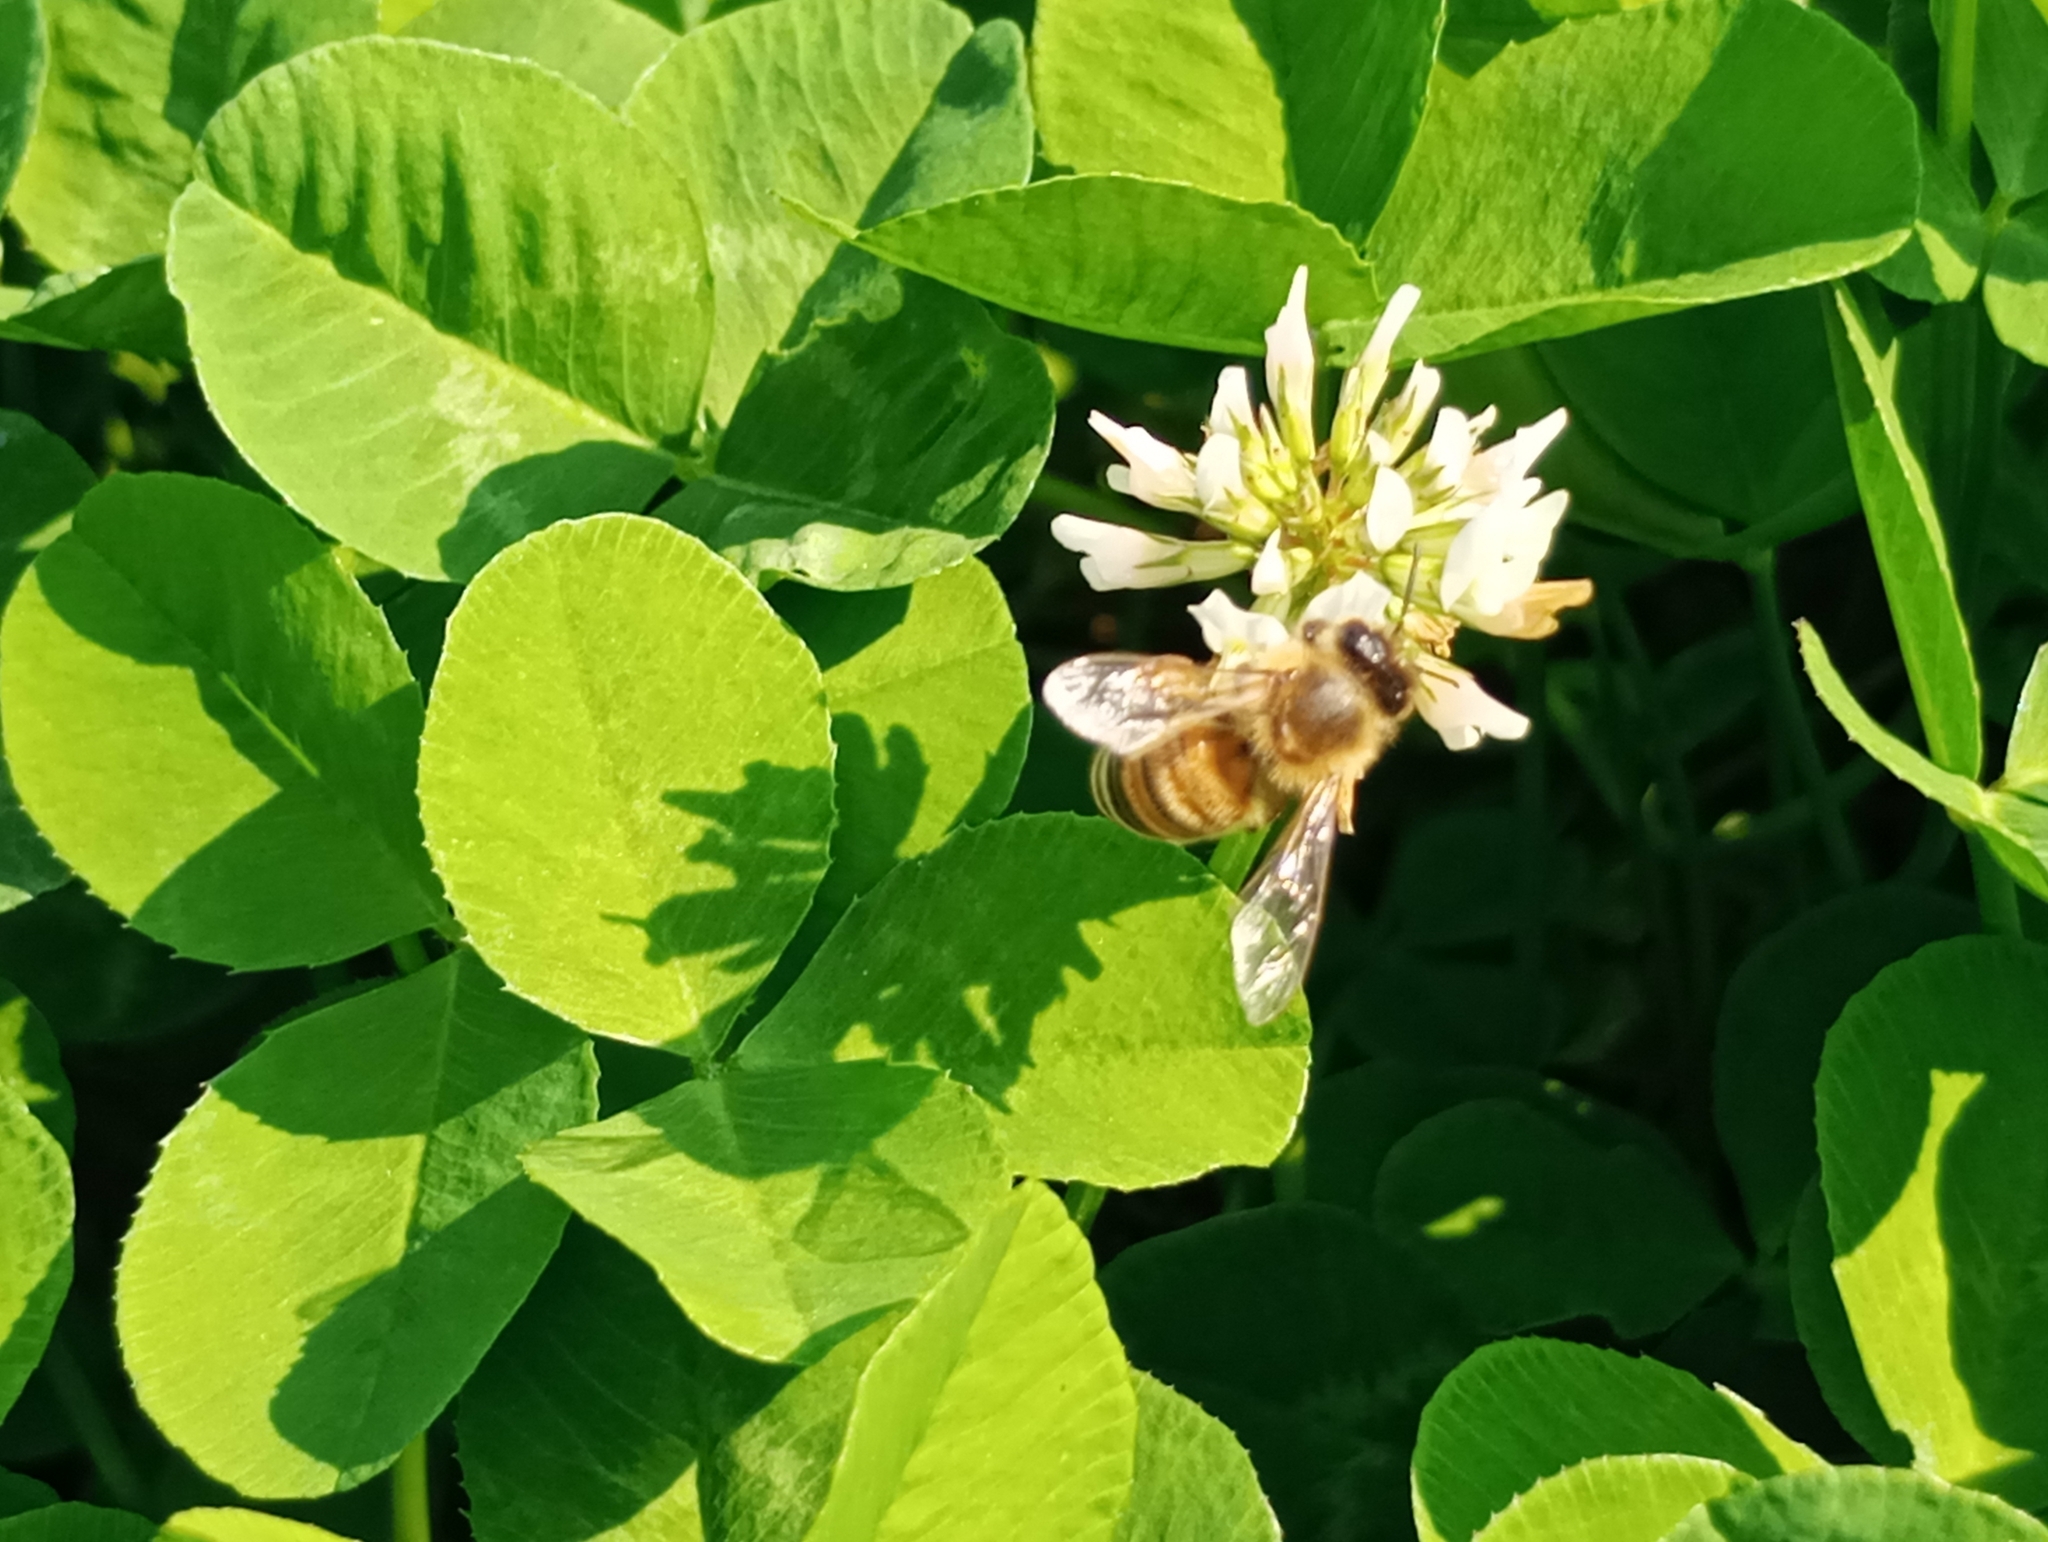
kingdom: Animalia
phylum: Arthropoda
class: Insecta
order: Hymenoptera
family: Apidae
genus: Apis
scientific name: Apis mellifera
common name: Honey bee
